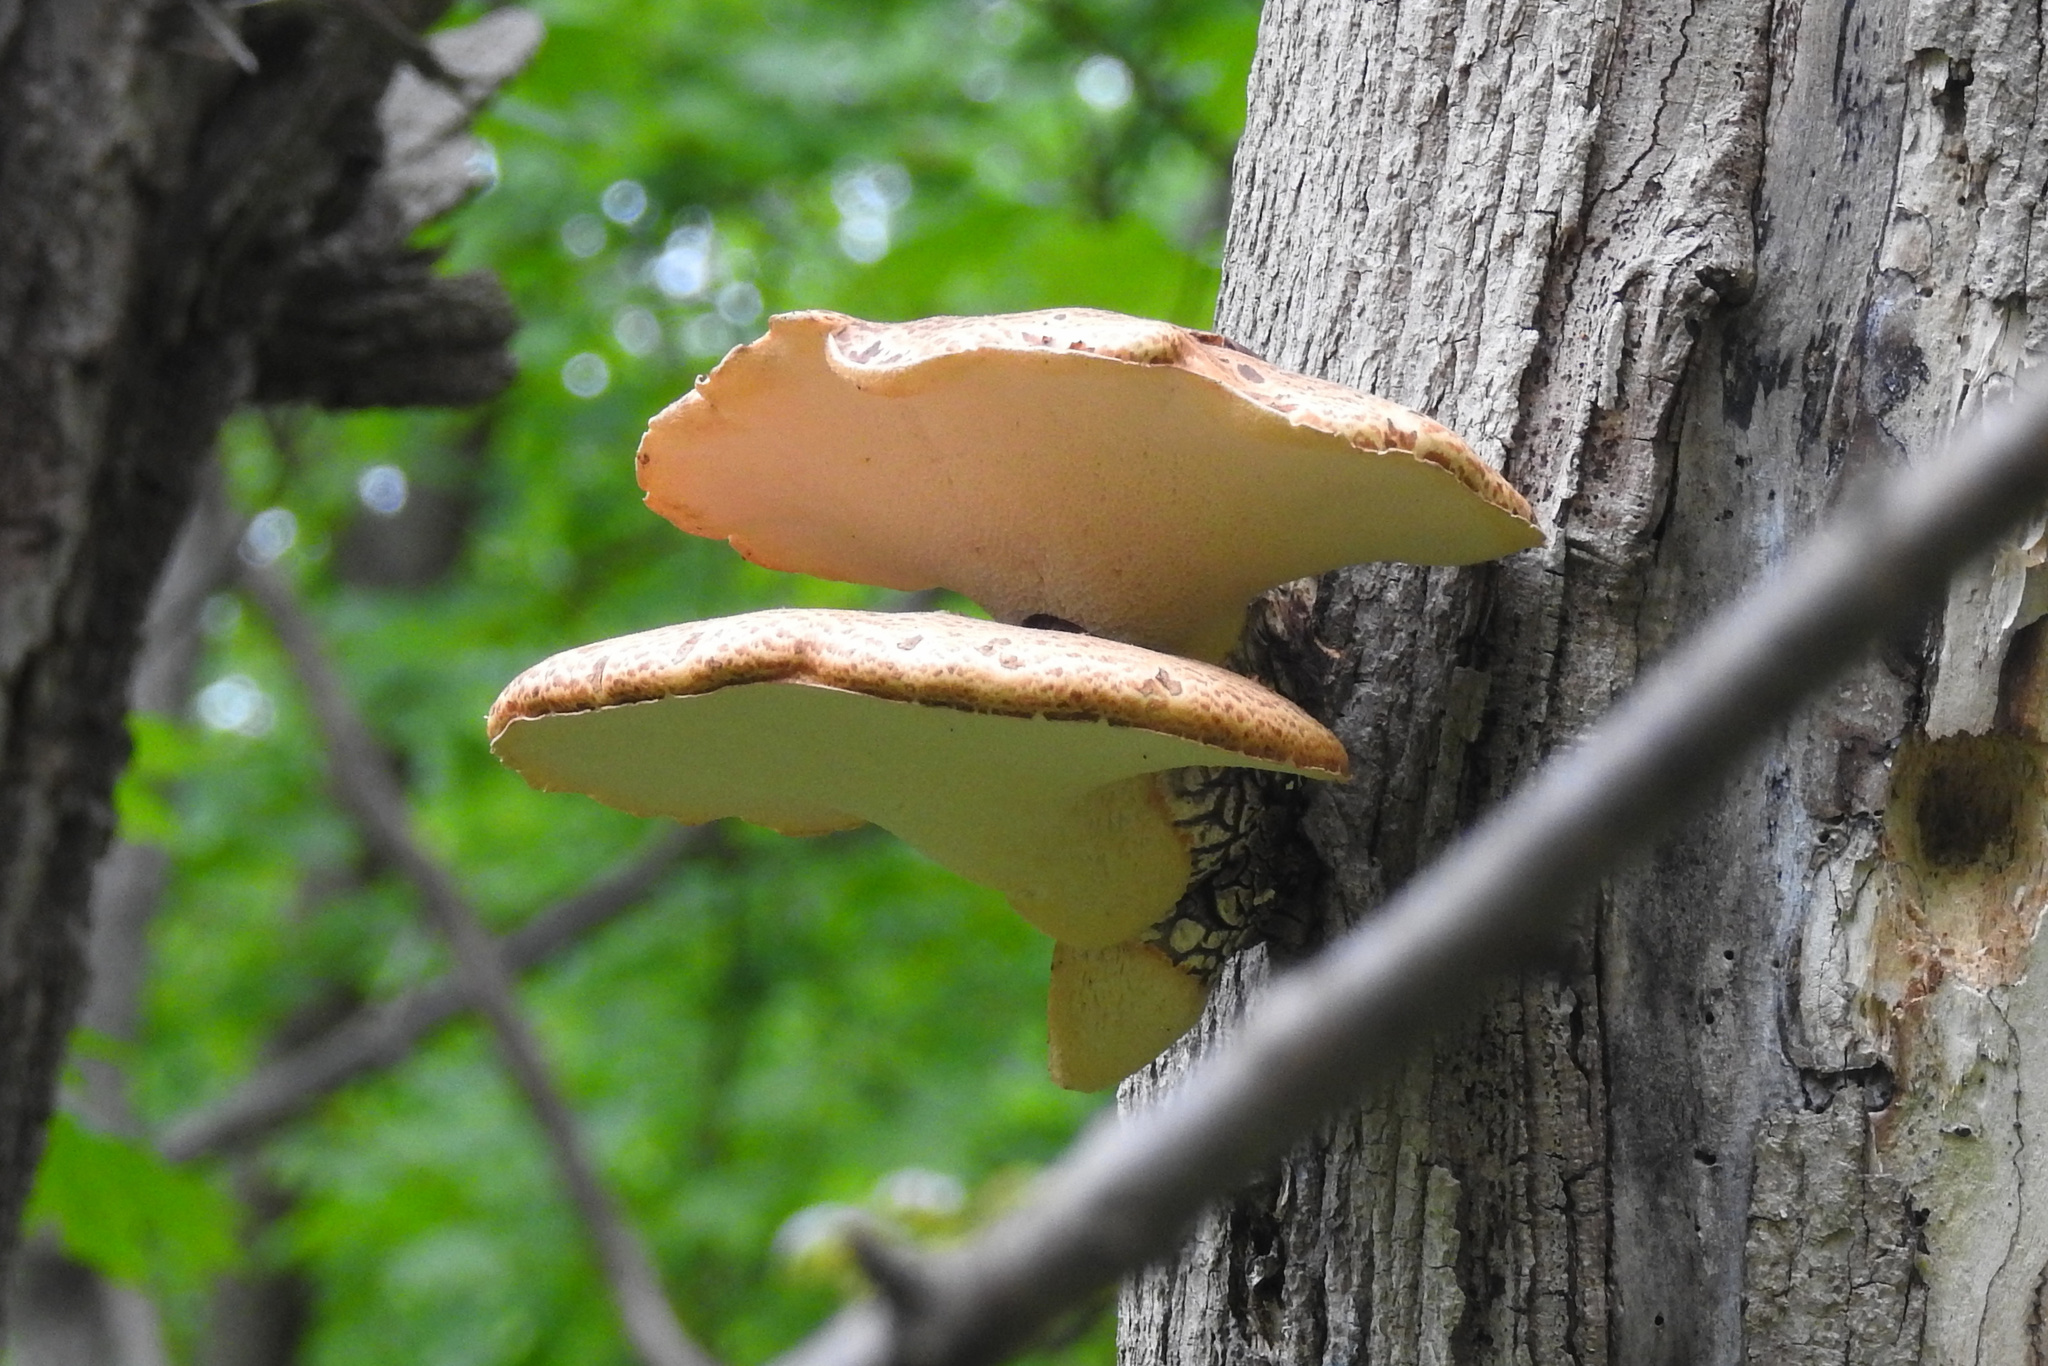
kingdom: Fungi
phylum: Basidiomycota
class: Agaricomycetes
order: Polyporales
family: Polyporaceae
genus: Cerioporus
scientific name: Cerioporus squamosus
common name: Dryad's saddle
